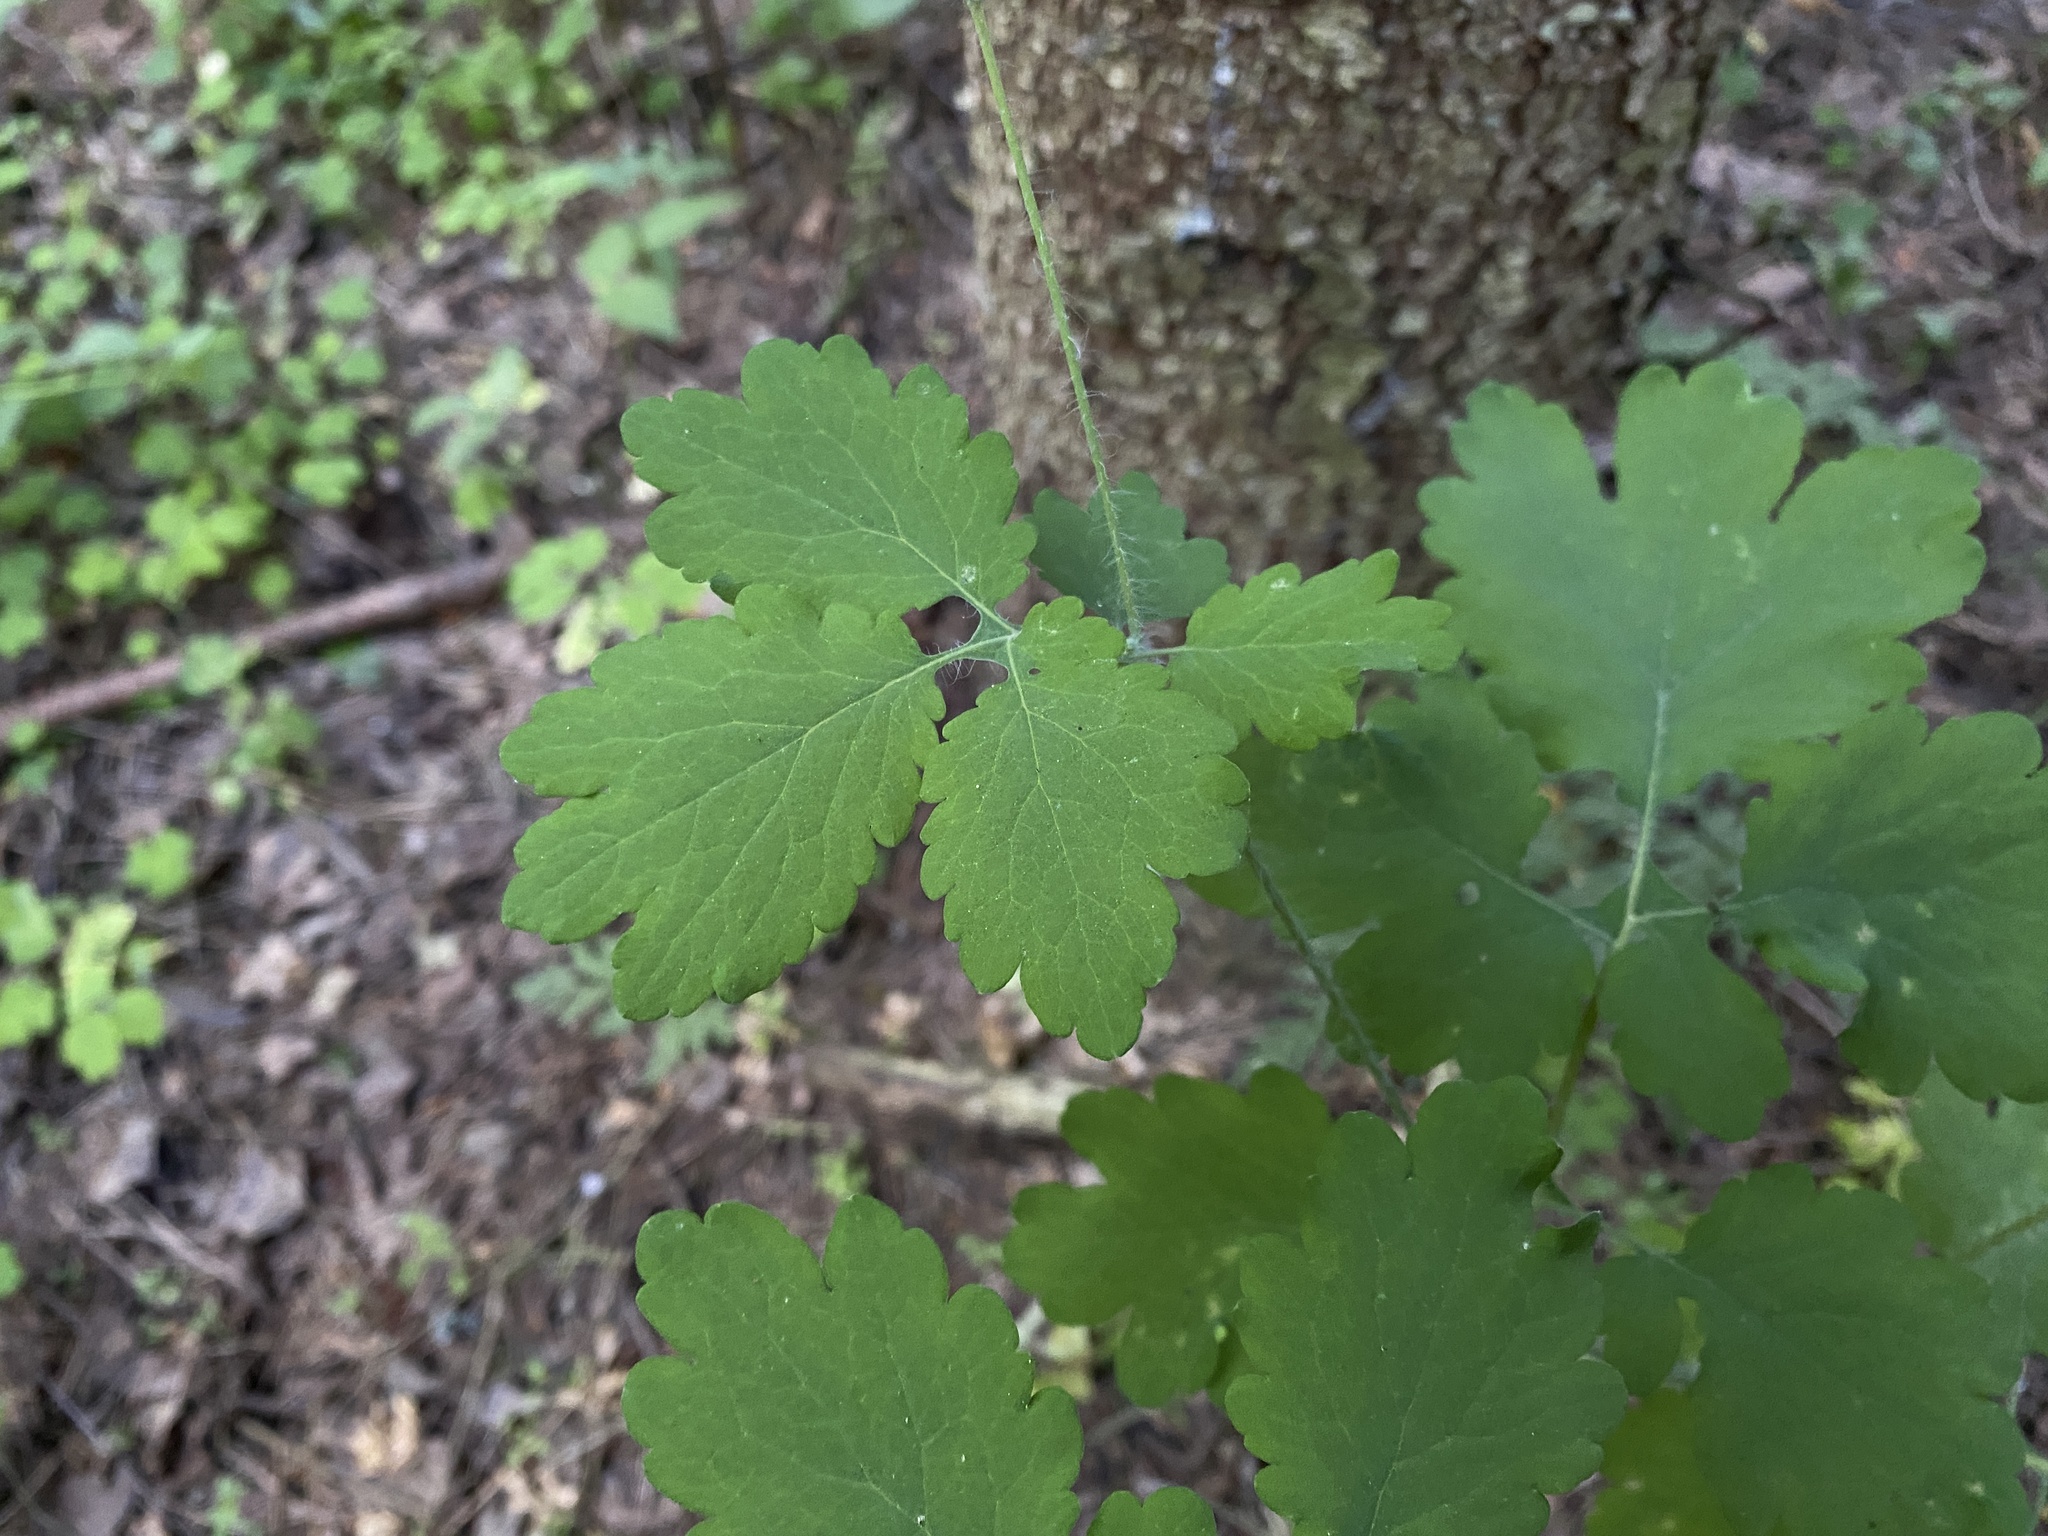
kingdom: Plantae
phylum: Tracheophyta
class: Magnoliopsida
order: Ranunculales
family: Papaveraceae
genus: Chelidonium
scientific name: Chelidonium majus
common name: Greater celandine
